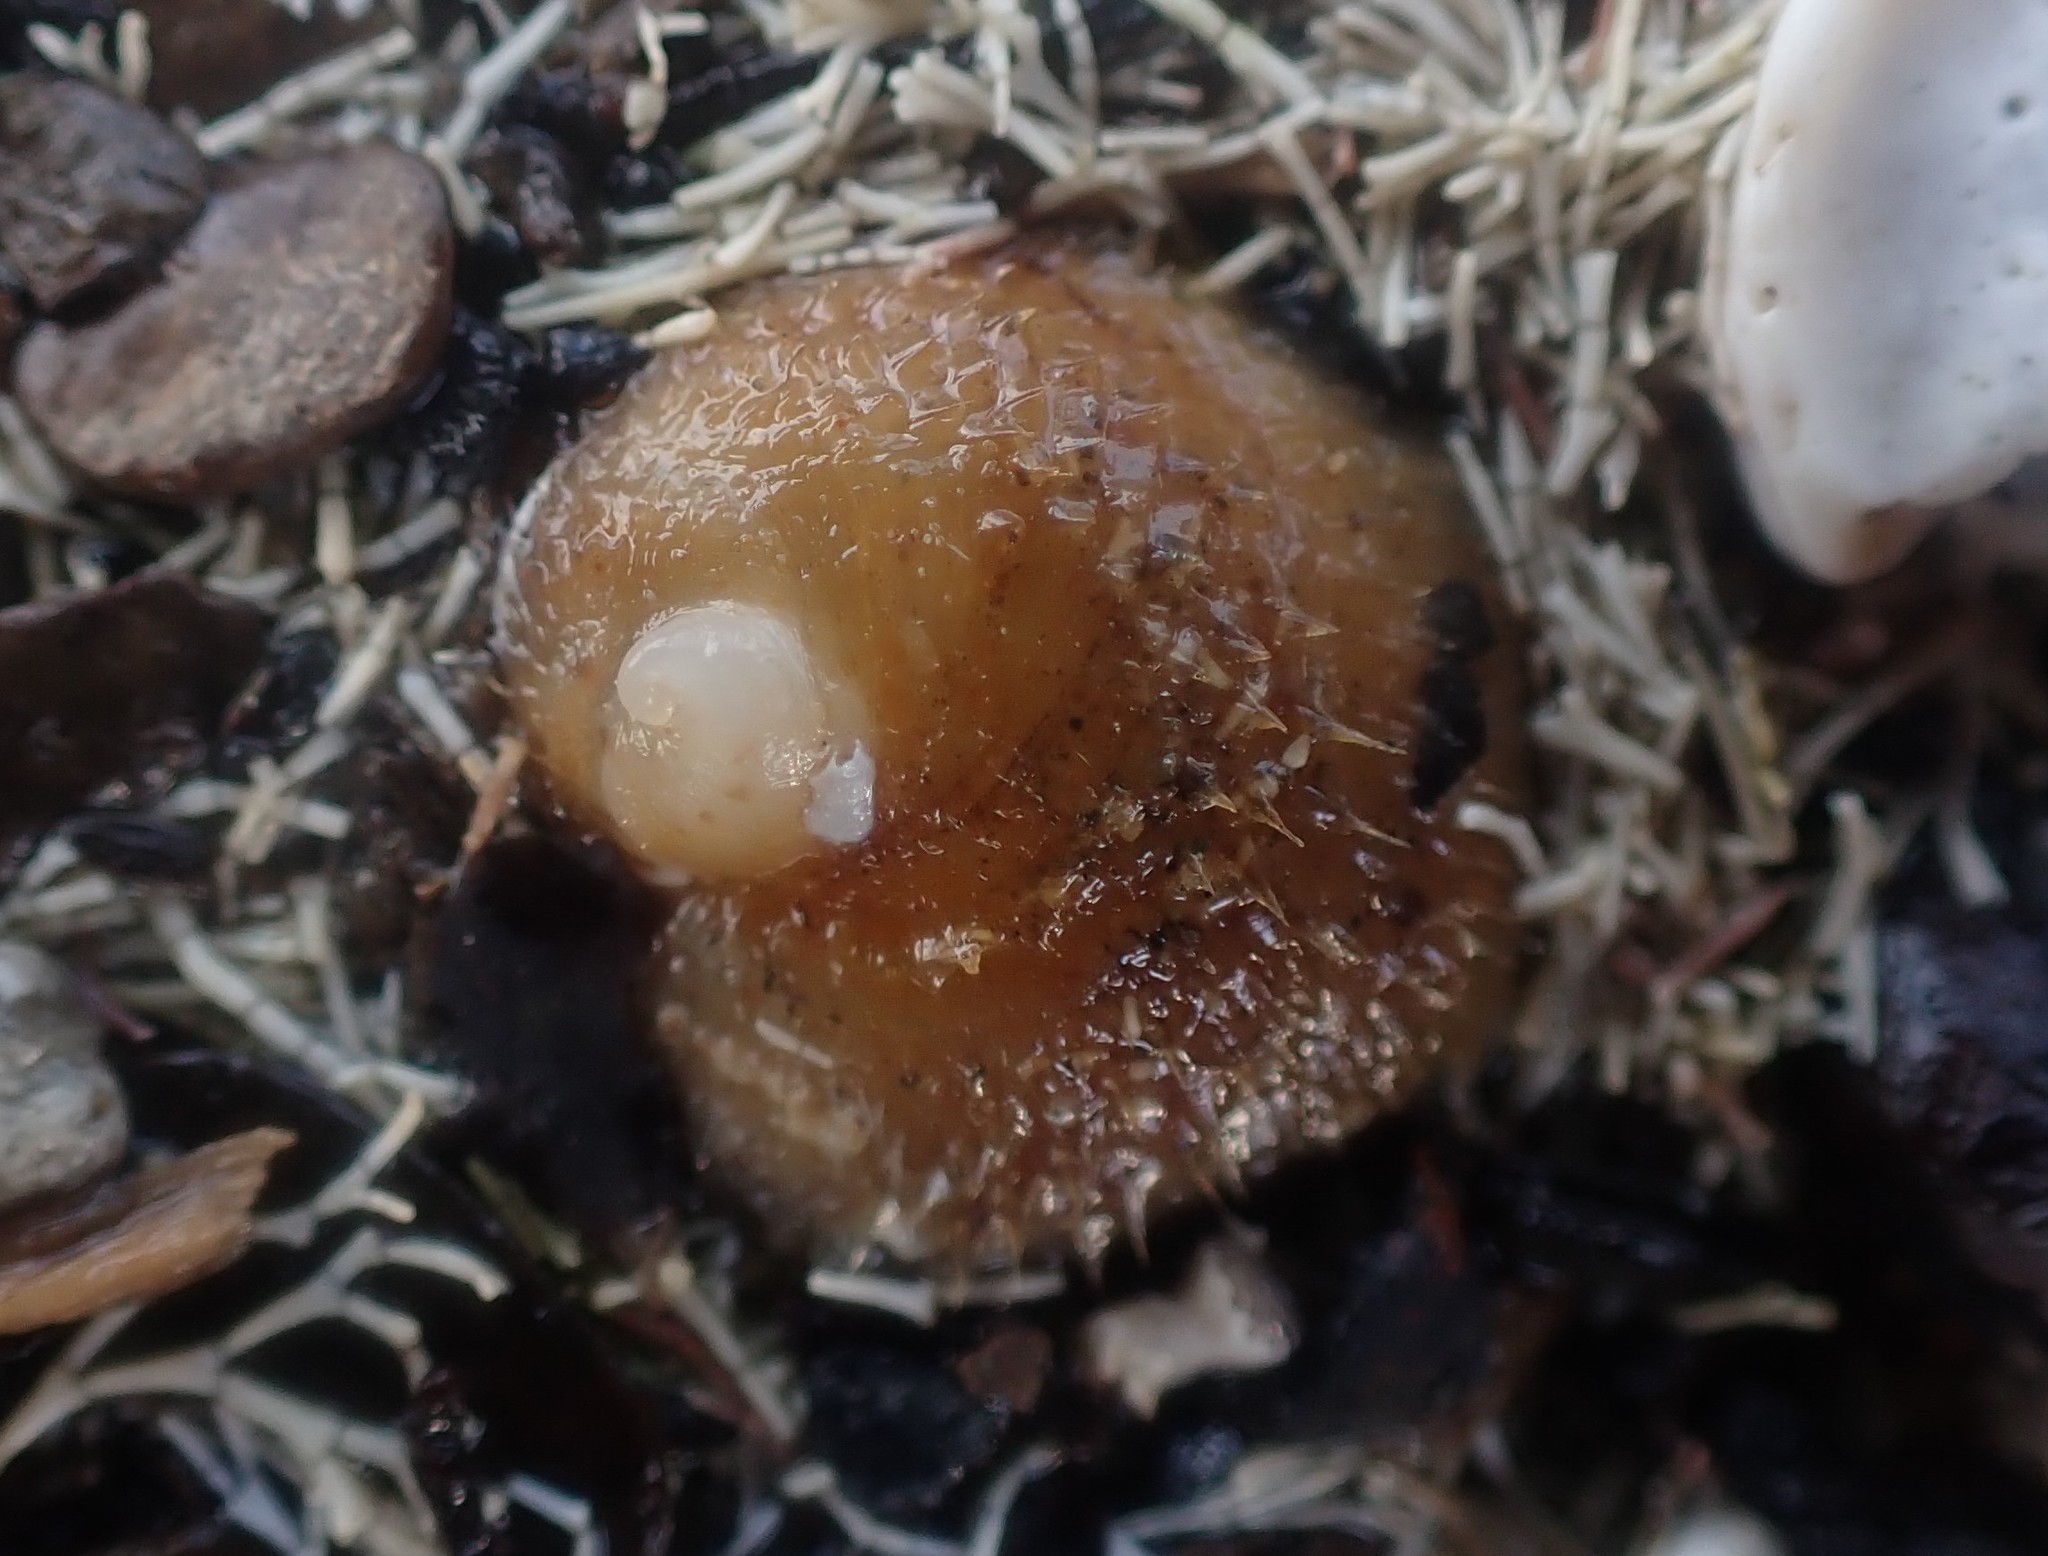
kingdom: Animalia
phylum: Mollusca
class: Gastropoda
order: Littorinimorpha
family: Calyptraeidae
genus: Sigapatella
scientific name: Sigapatella novaezelandiae
